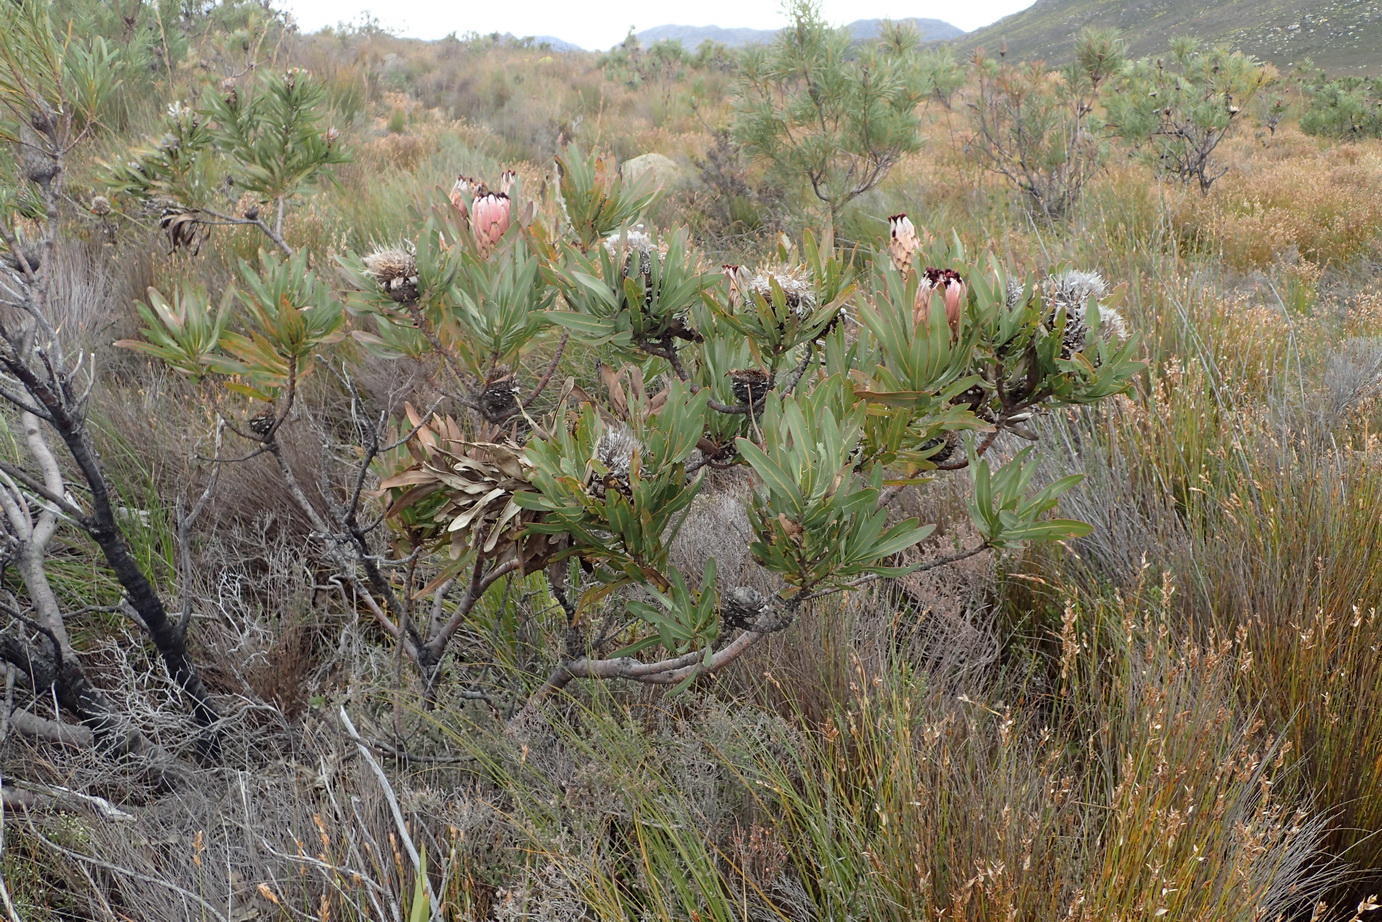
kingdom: Plantae
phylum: Tracheophyta
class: Magnoliopsida
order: Proteales
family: Proteaceae
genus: Protea
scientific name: Protea neriifolia
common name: Blue sugarbush
